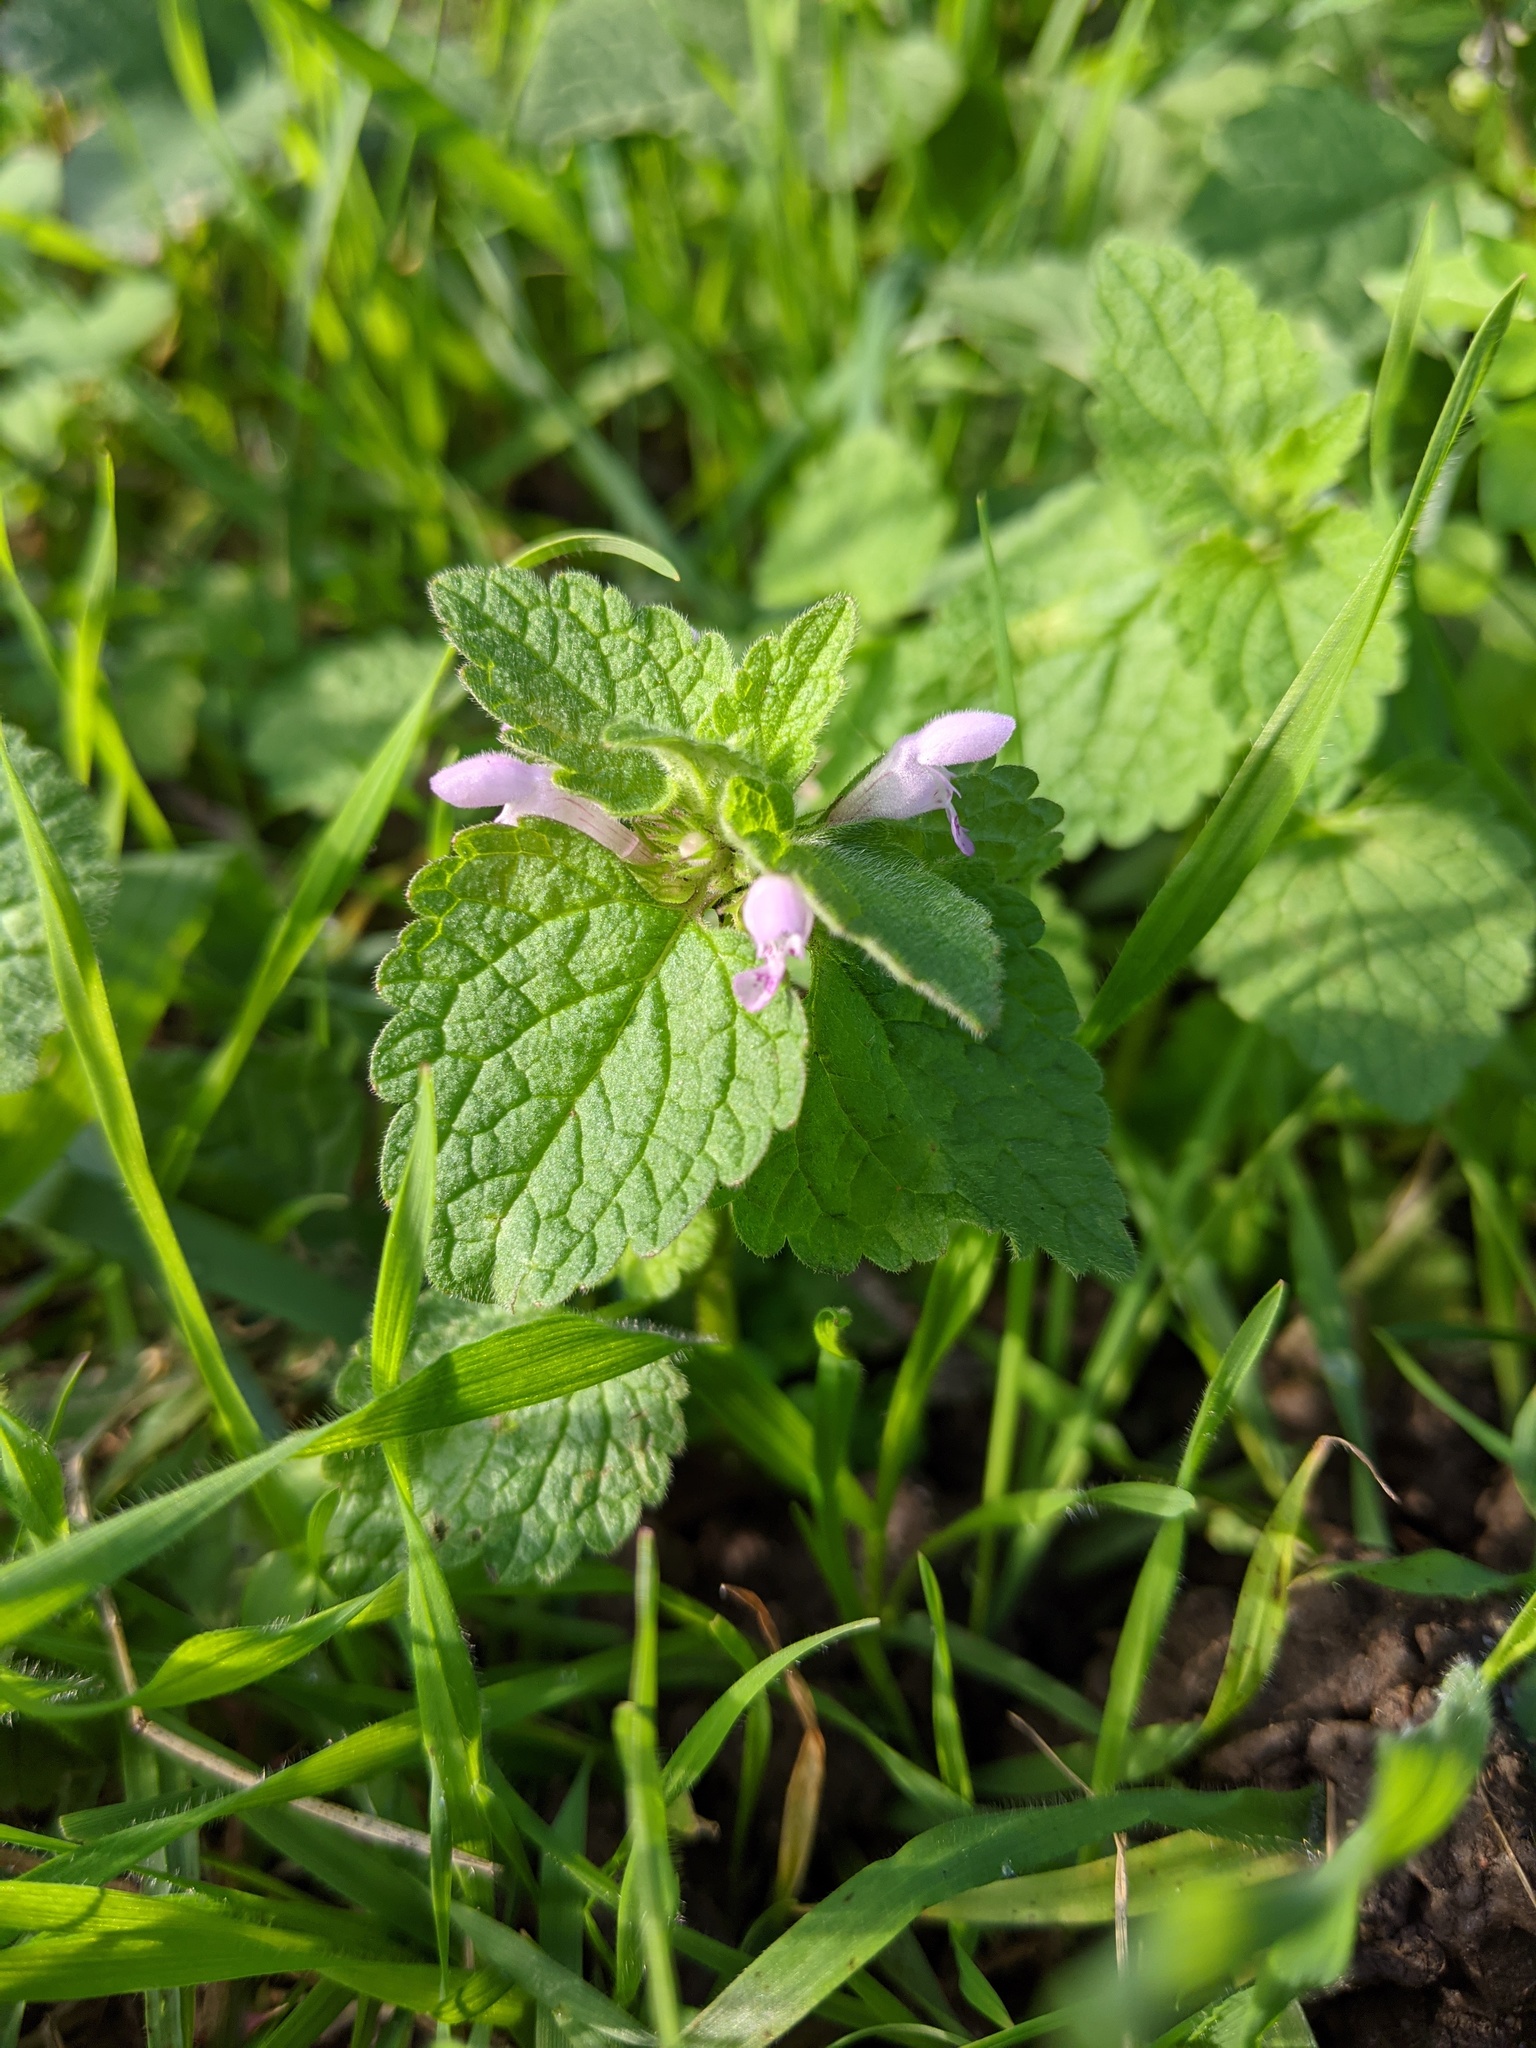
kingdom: Plantae
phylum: Tracheophyta
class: Magnoliopsida
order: Lamiales
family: Lamiaceae
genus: Lamium
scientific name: Lamium purpureum
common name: Red dead-nettle
